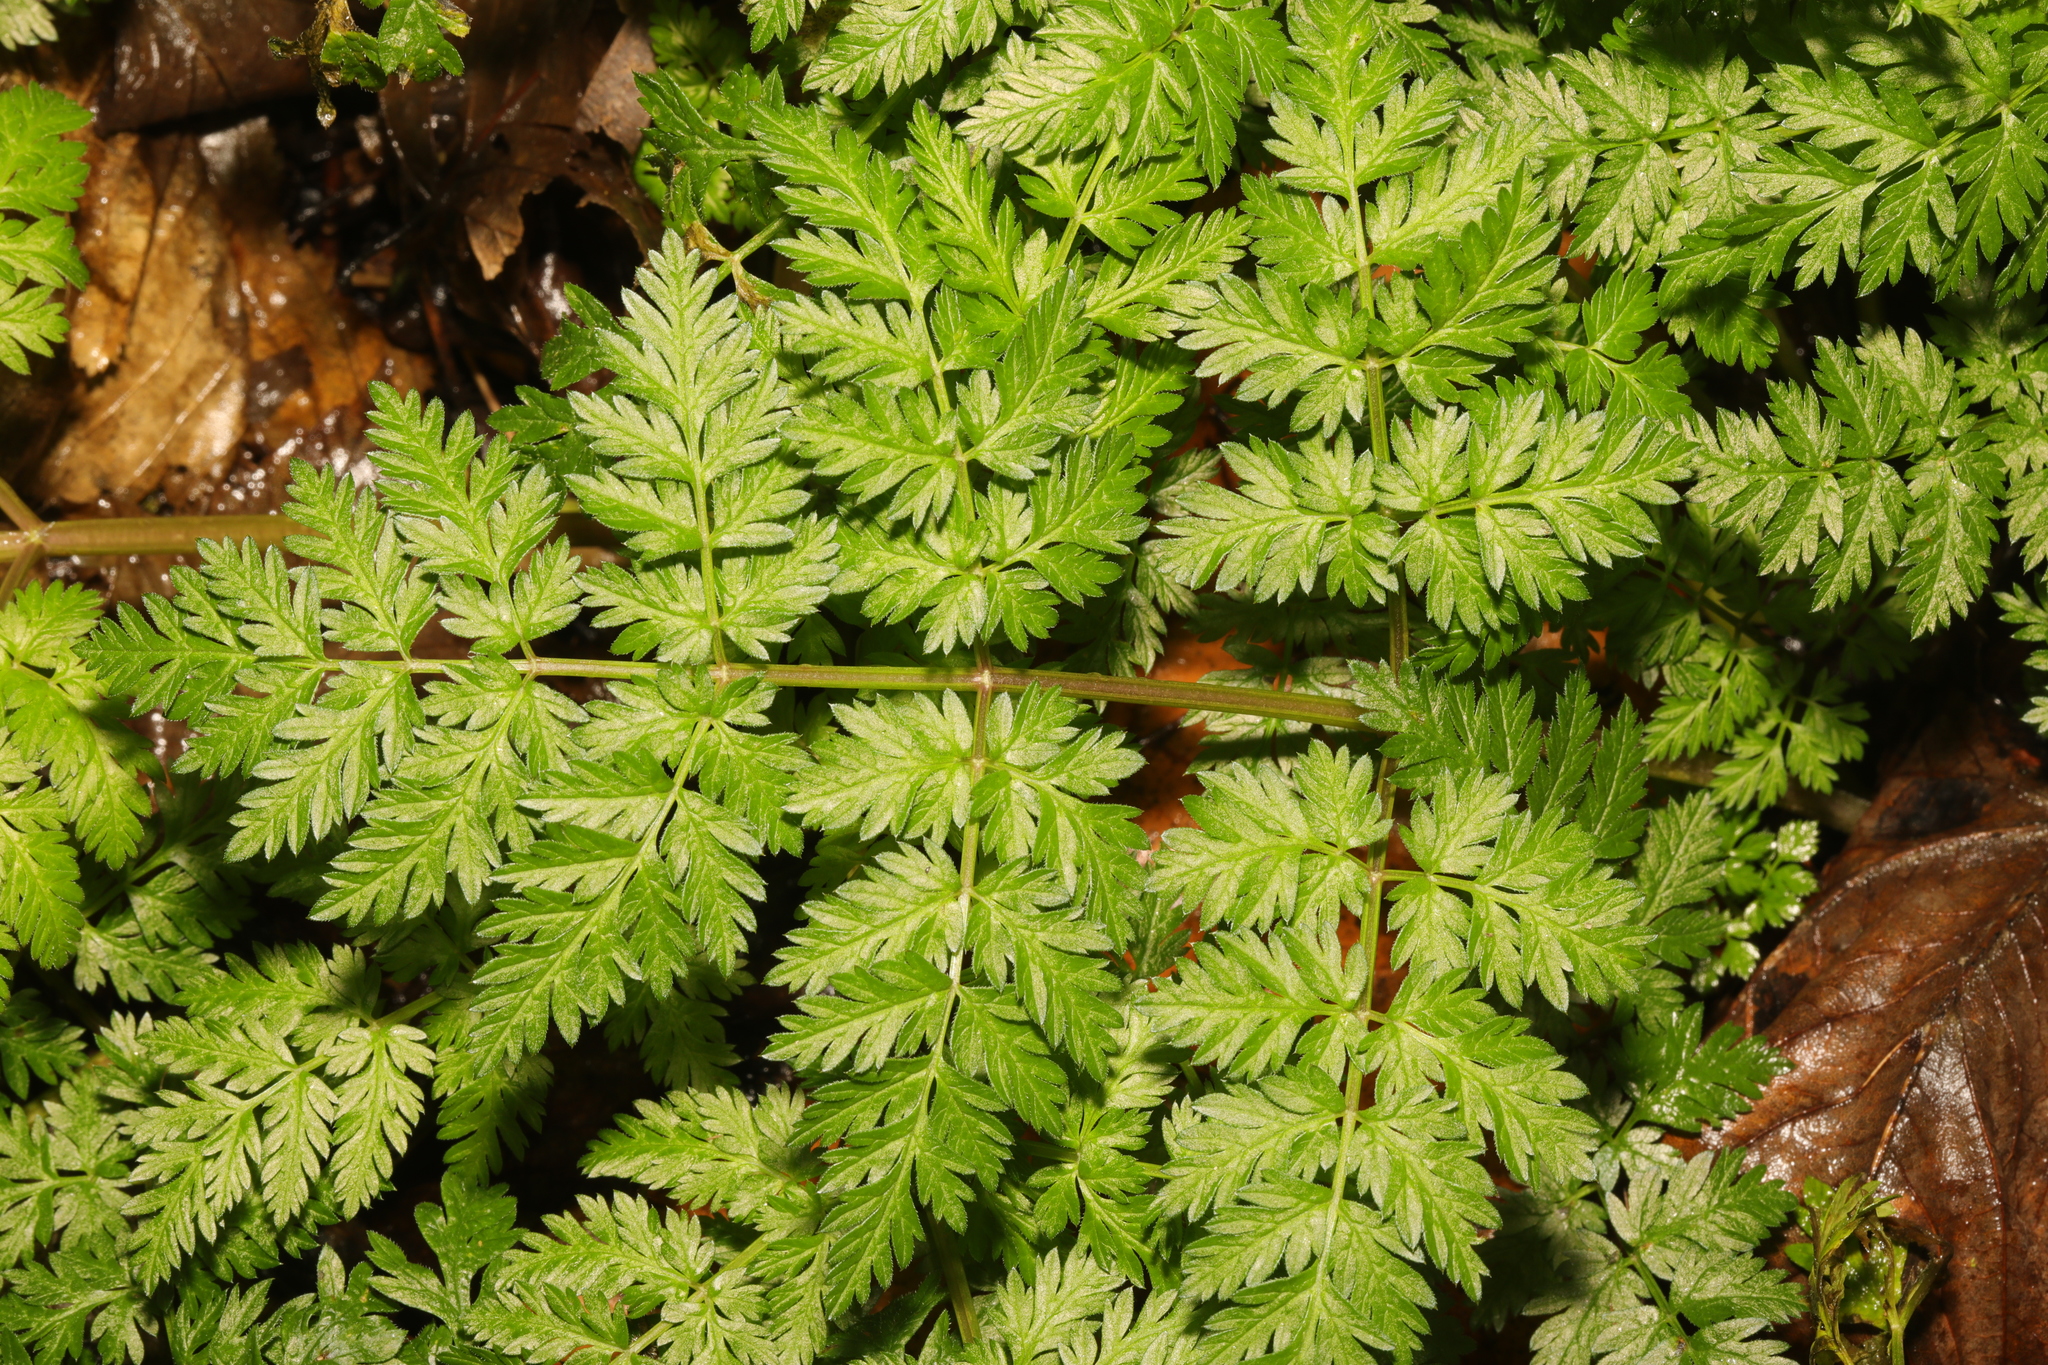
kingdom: Plantae
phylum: Tracheophyta
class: Magnoliopsida
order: Apiales
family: Apiaceae
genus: Anthriscus
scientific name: Anthriscus sylvestris
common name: Cow parsley
